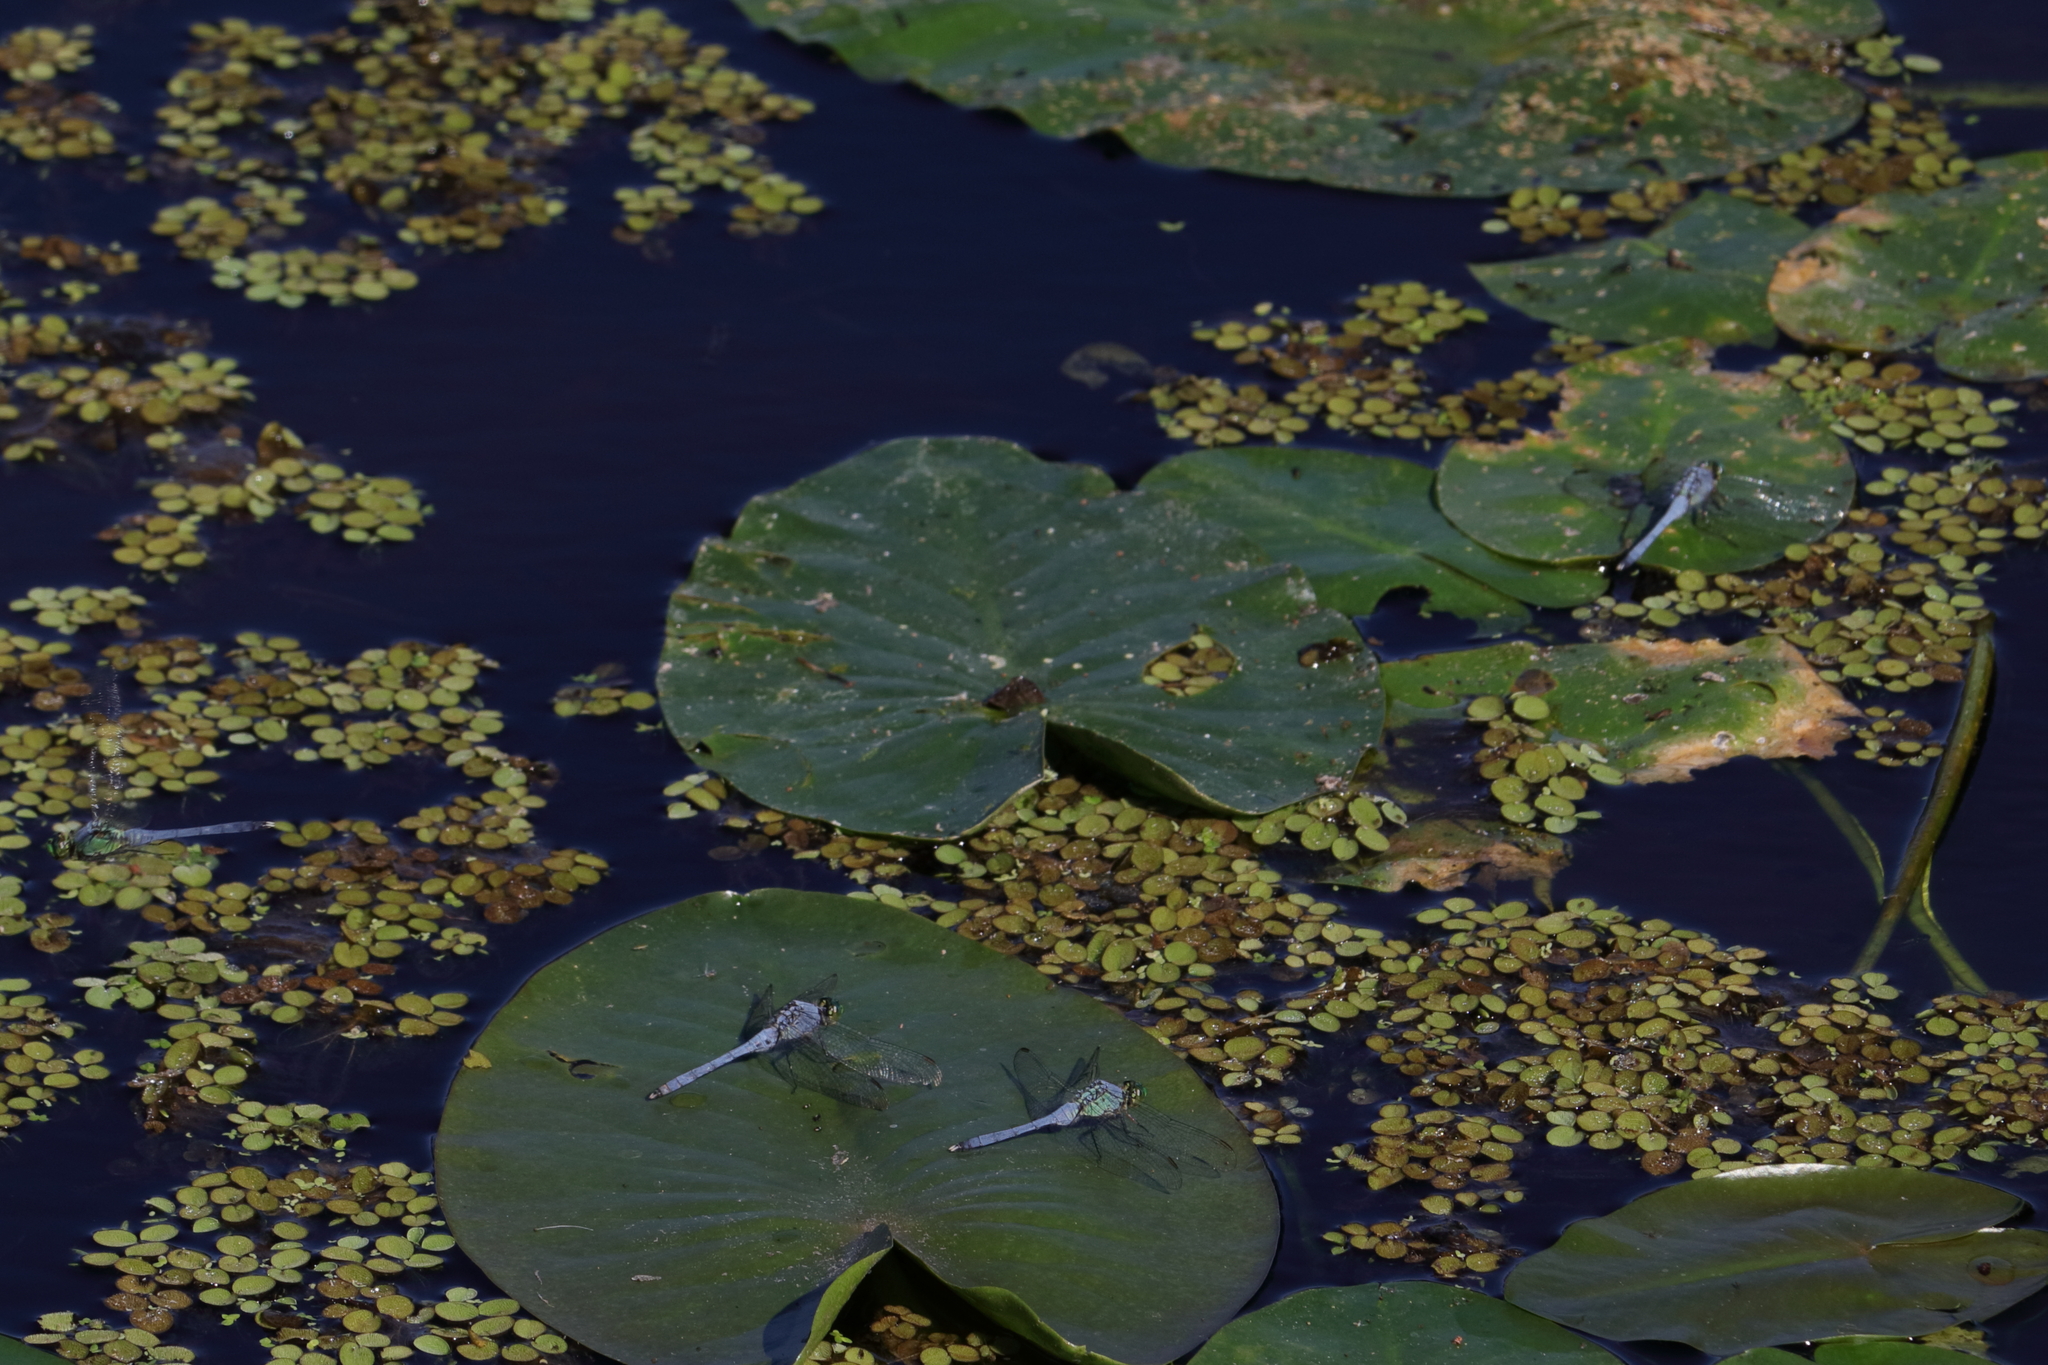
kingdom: Animalia
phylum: Arthropoda
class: Insecta
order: Odonata
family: Libellulidae
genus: Erythemis
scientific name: Erythemis simplicicollis
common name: Eastern pondhawk
